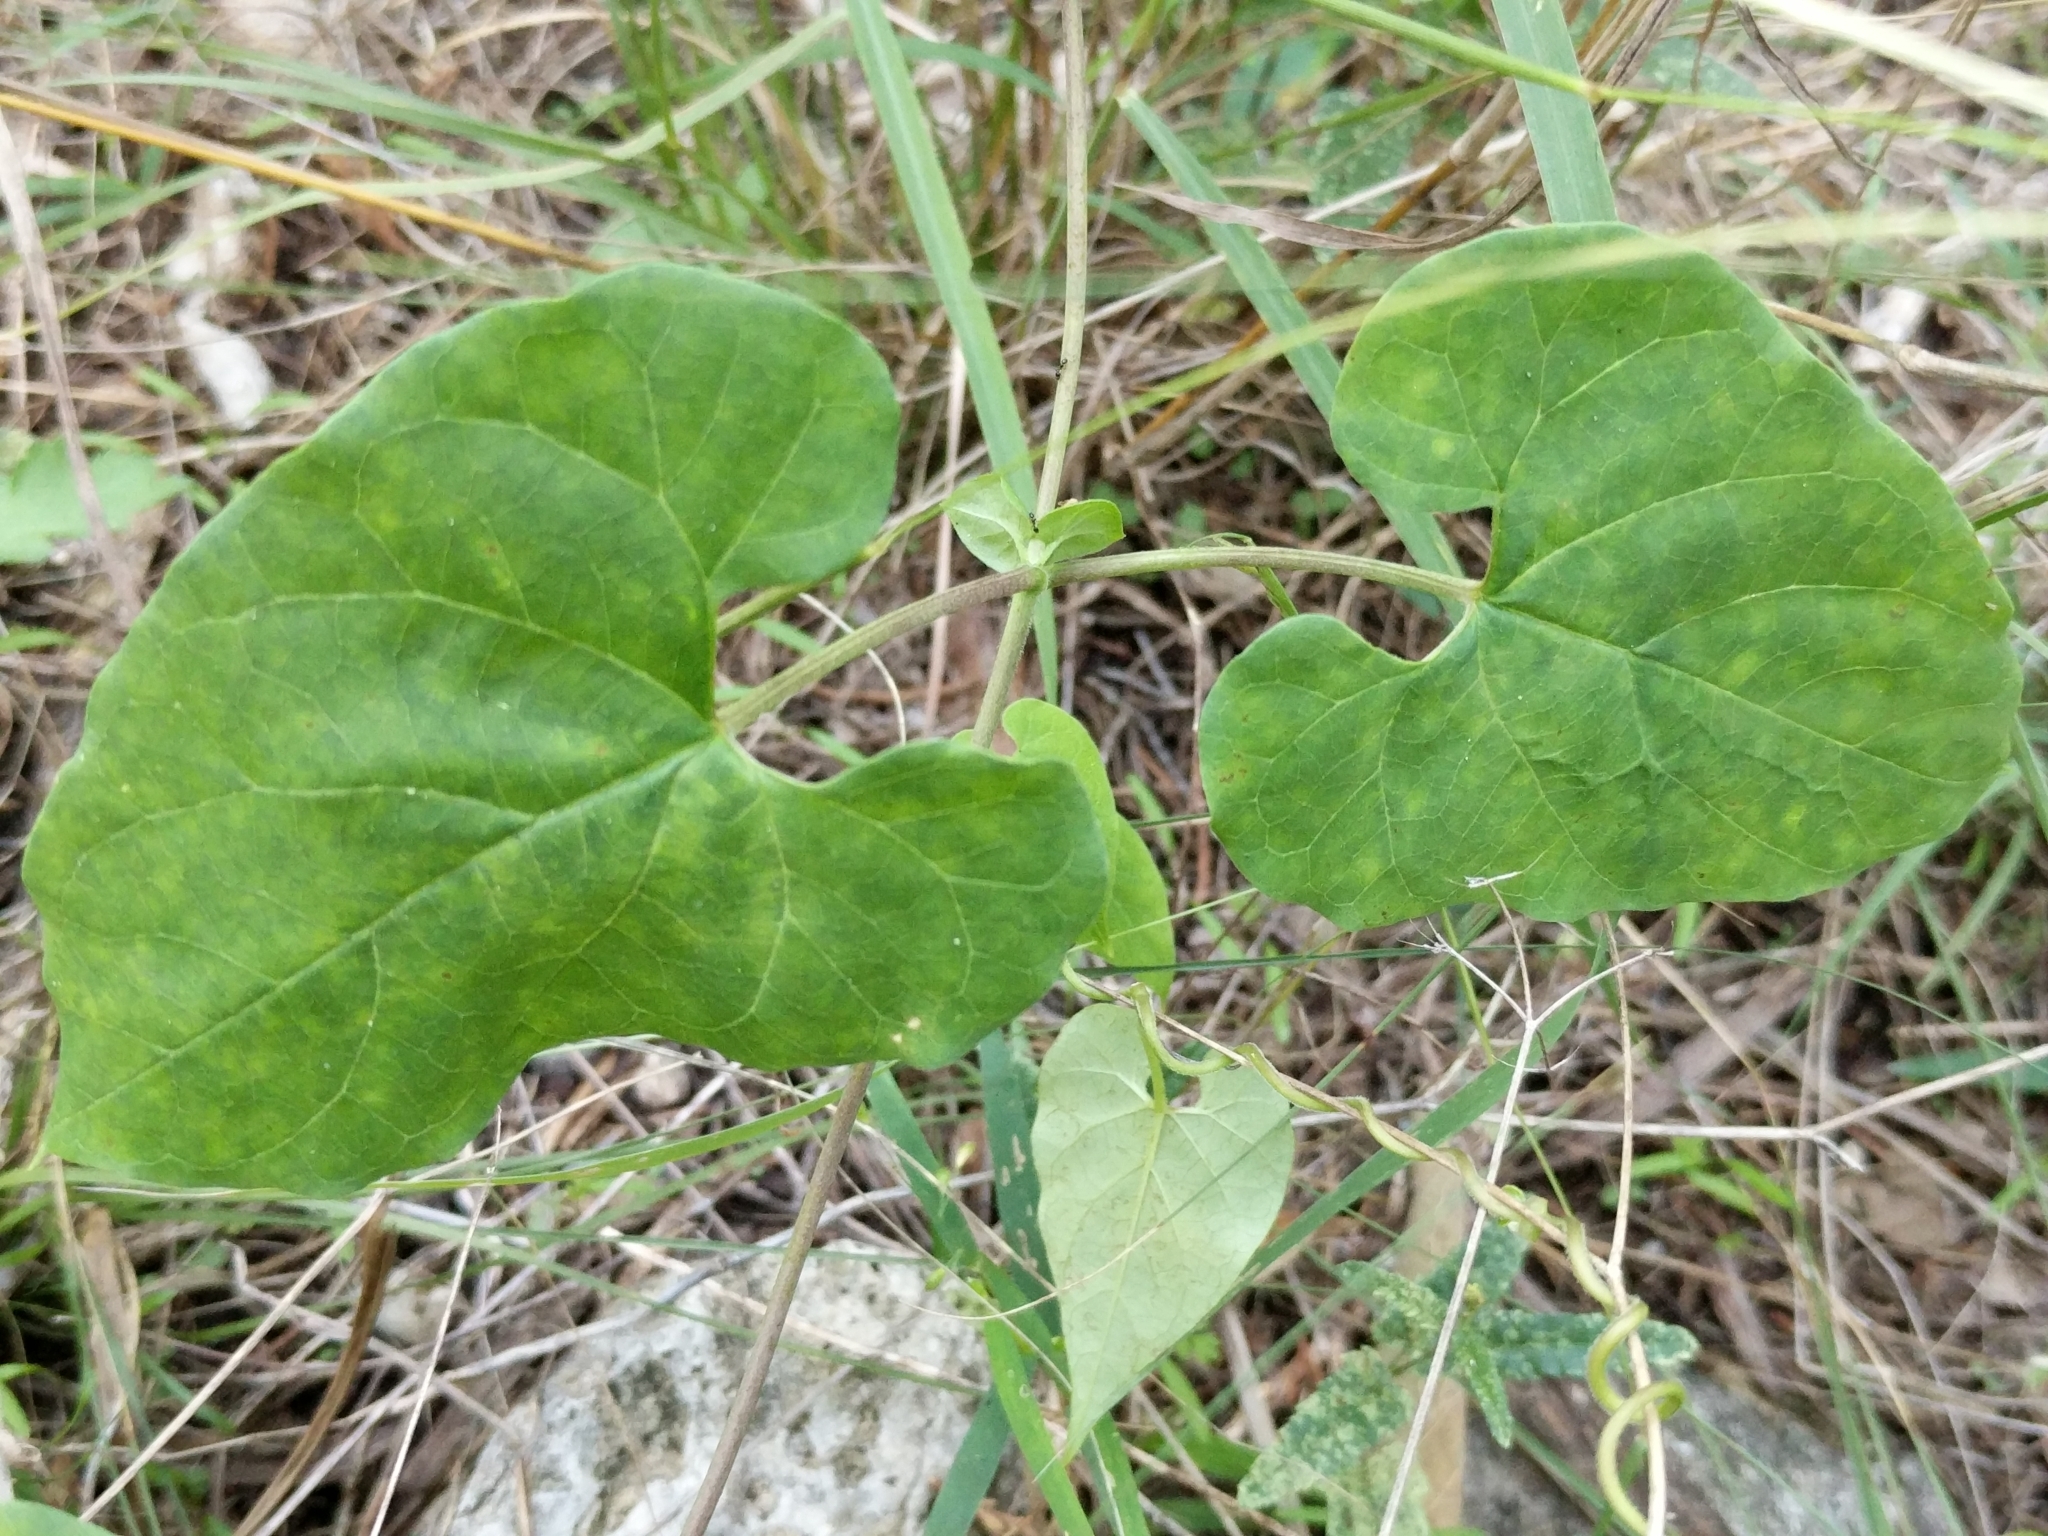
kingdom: Plantae
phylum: Tracheophyta
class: Magnoliopsida
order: Gentianales
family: Apocynaceae
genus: Cynanchum
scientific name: Cynanchum racemosum
